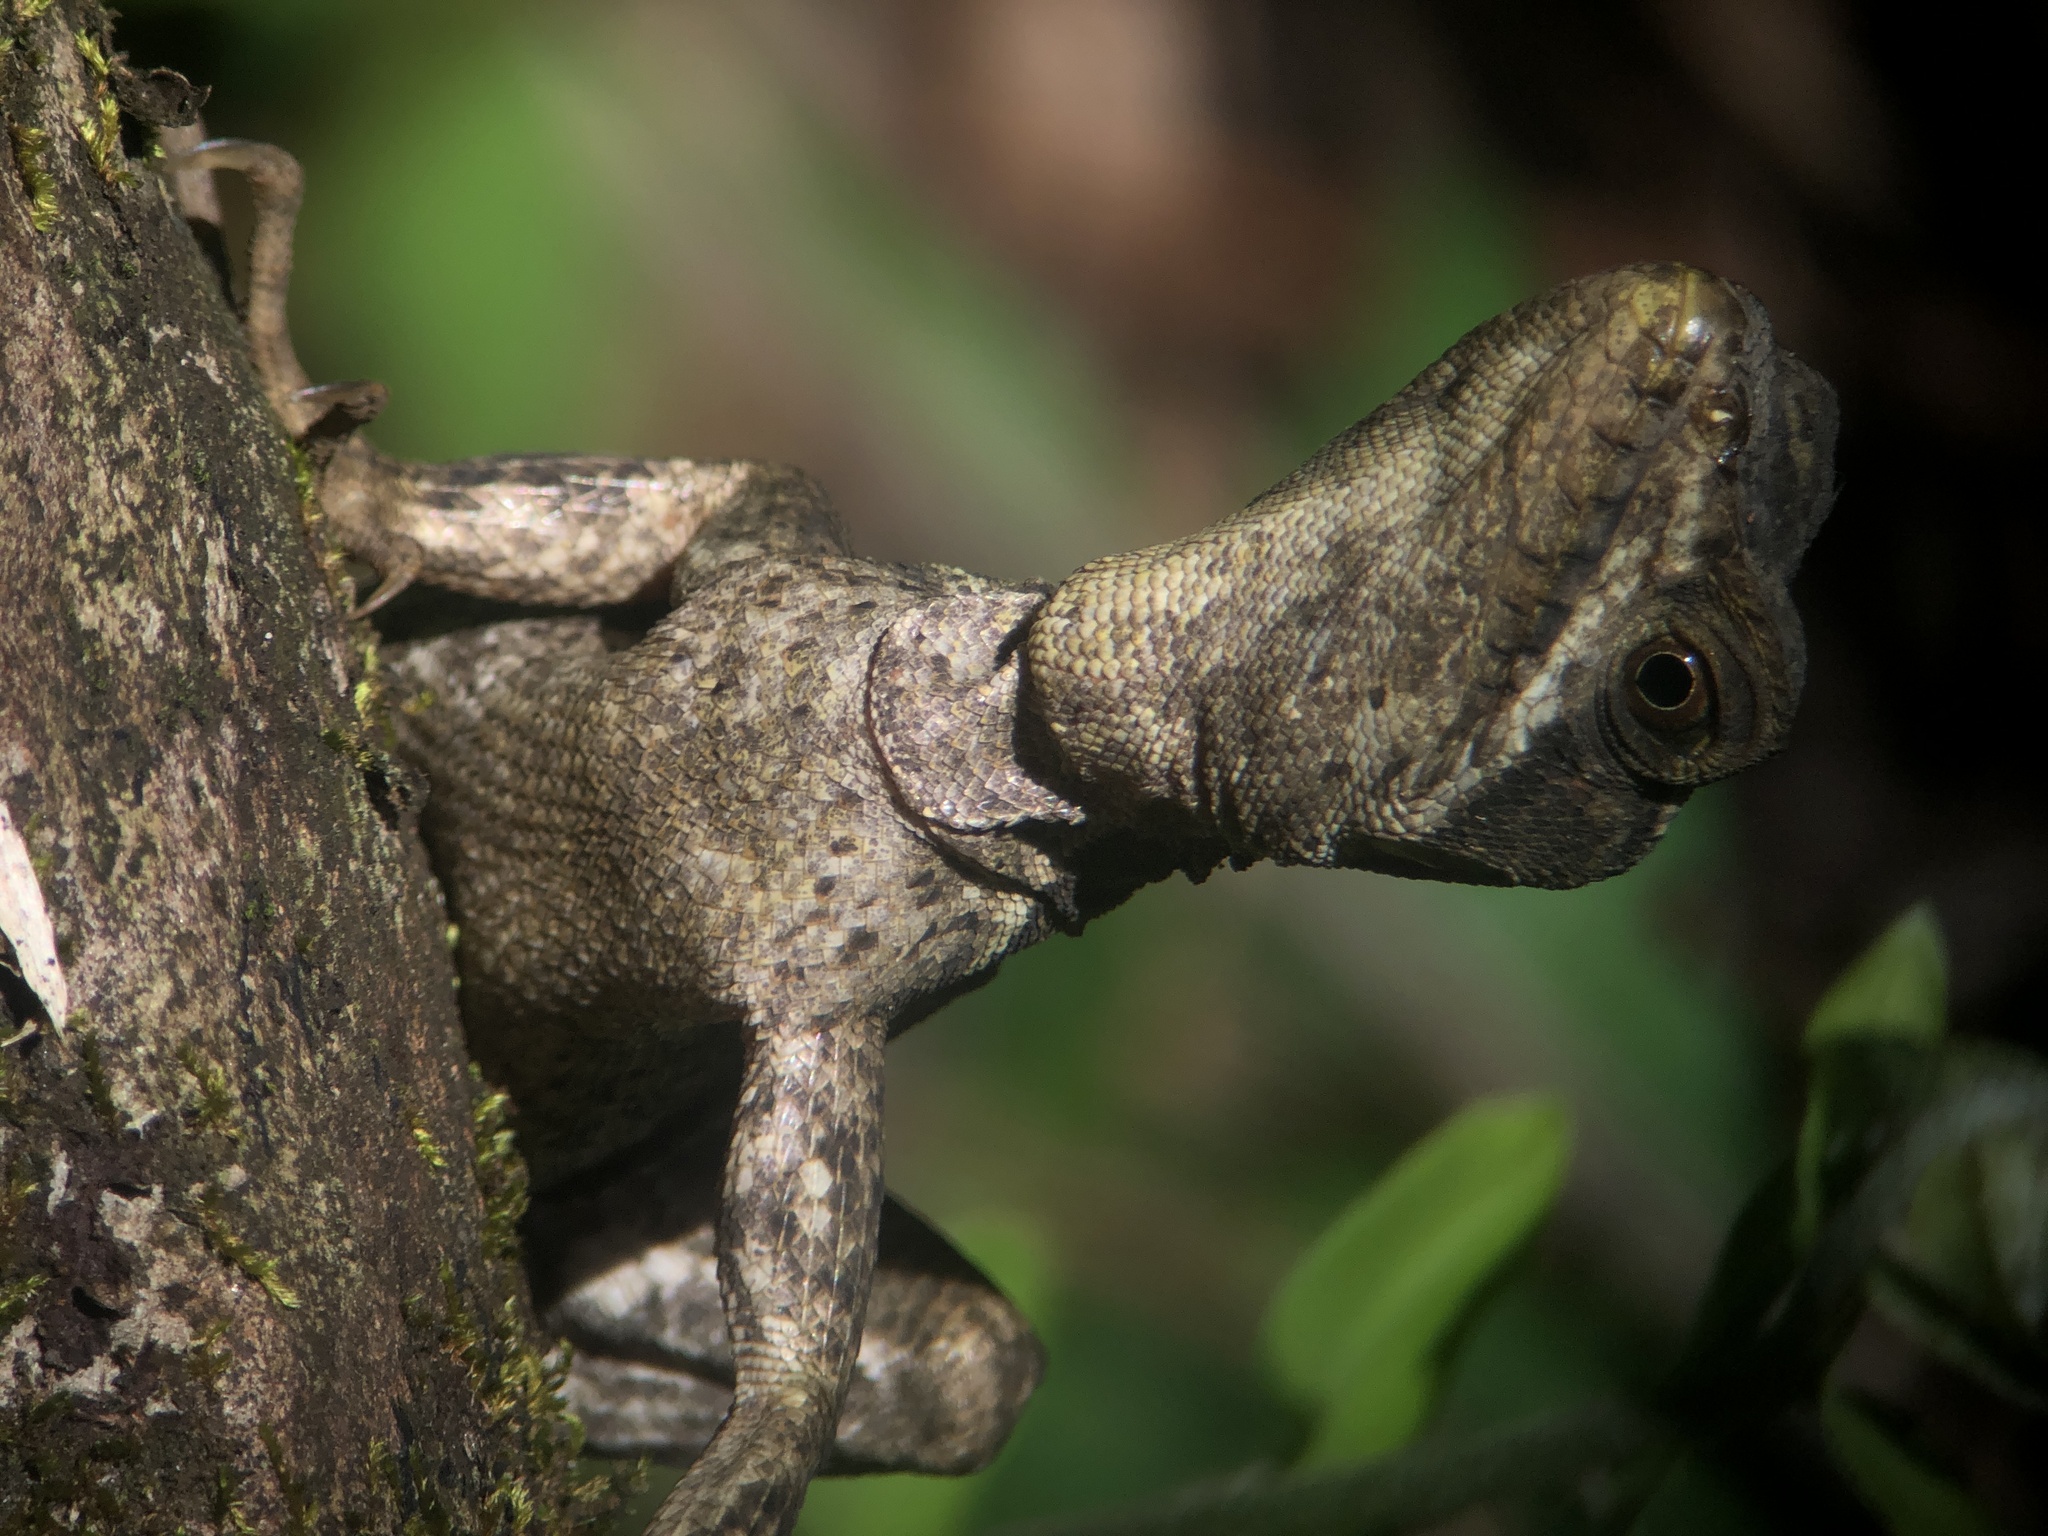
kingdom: Animalia
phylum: Chordata
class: Squamata
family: Corytophanidae
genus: Basiliscus
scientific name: Basiliscus vittatus
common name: Brown basilisk
